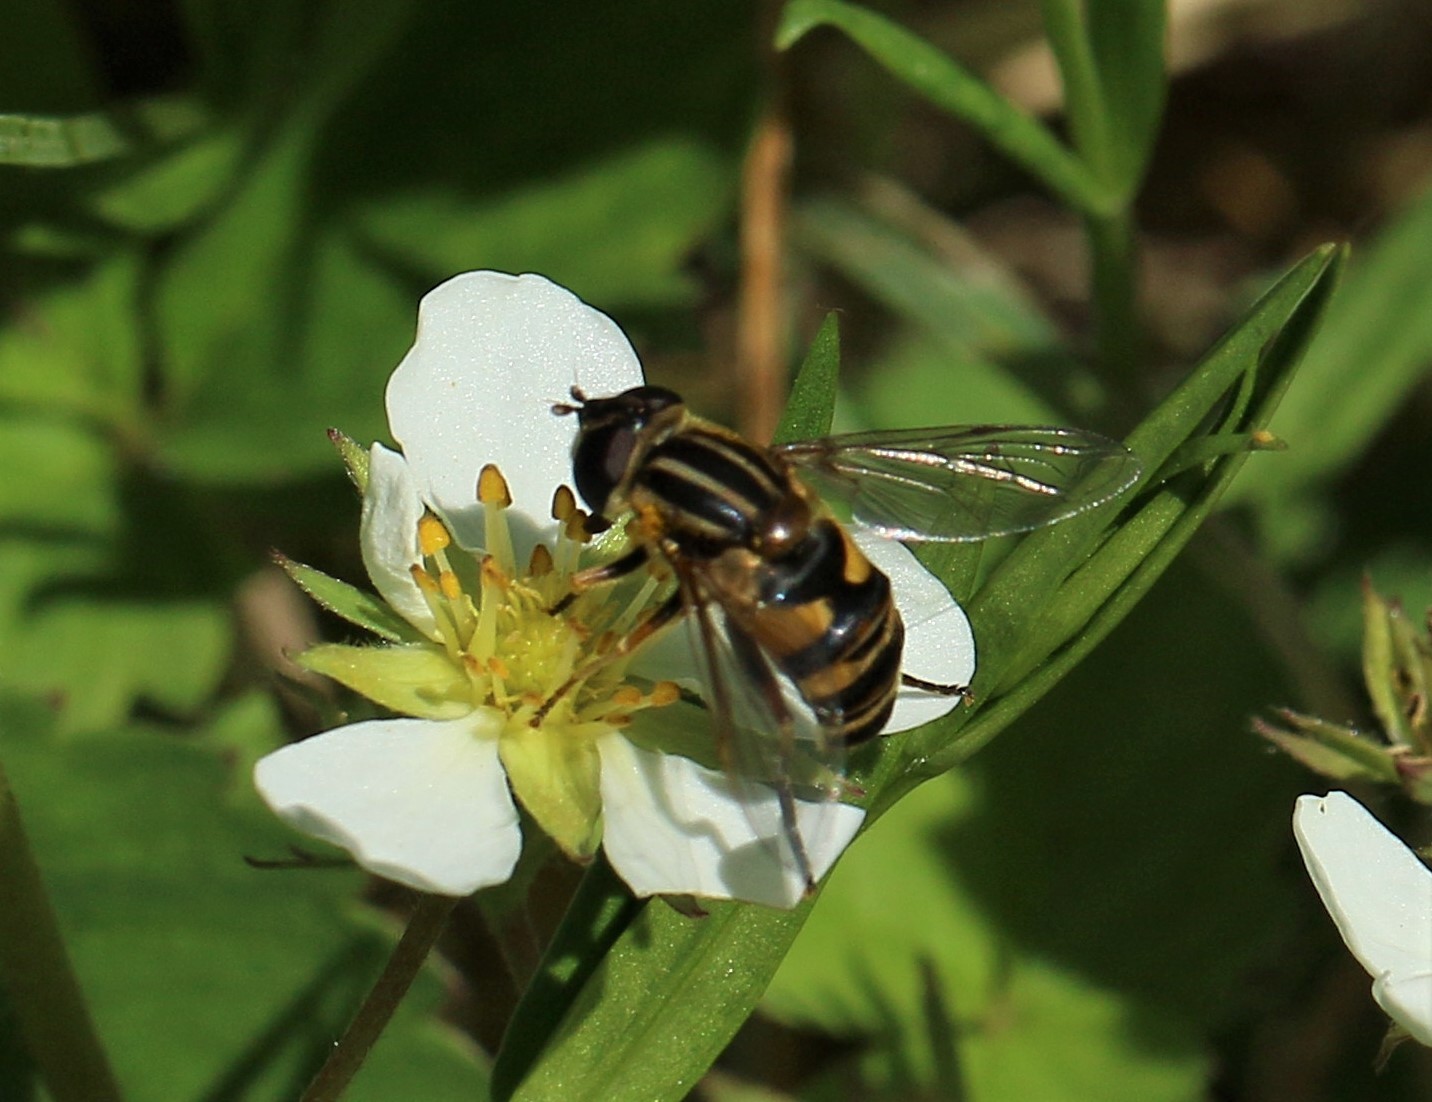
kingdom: Animalia
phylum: Arthropoda
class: Insecta
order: Diptera
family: Syrphidae
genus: Helophilus
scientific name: Helophilus fasciatus
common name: Narrow-headed marsh fly
